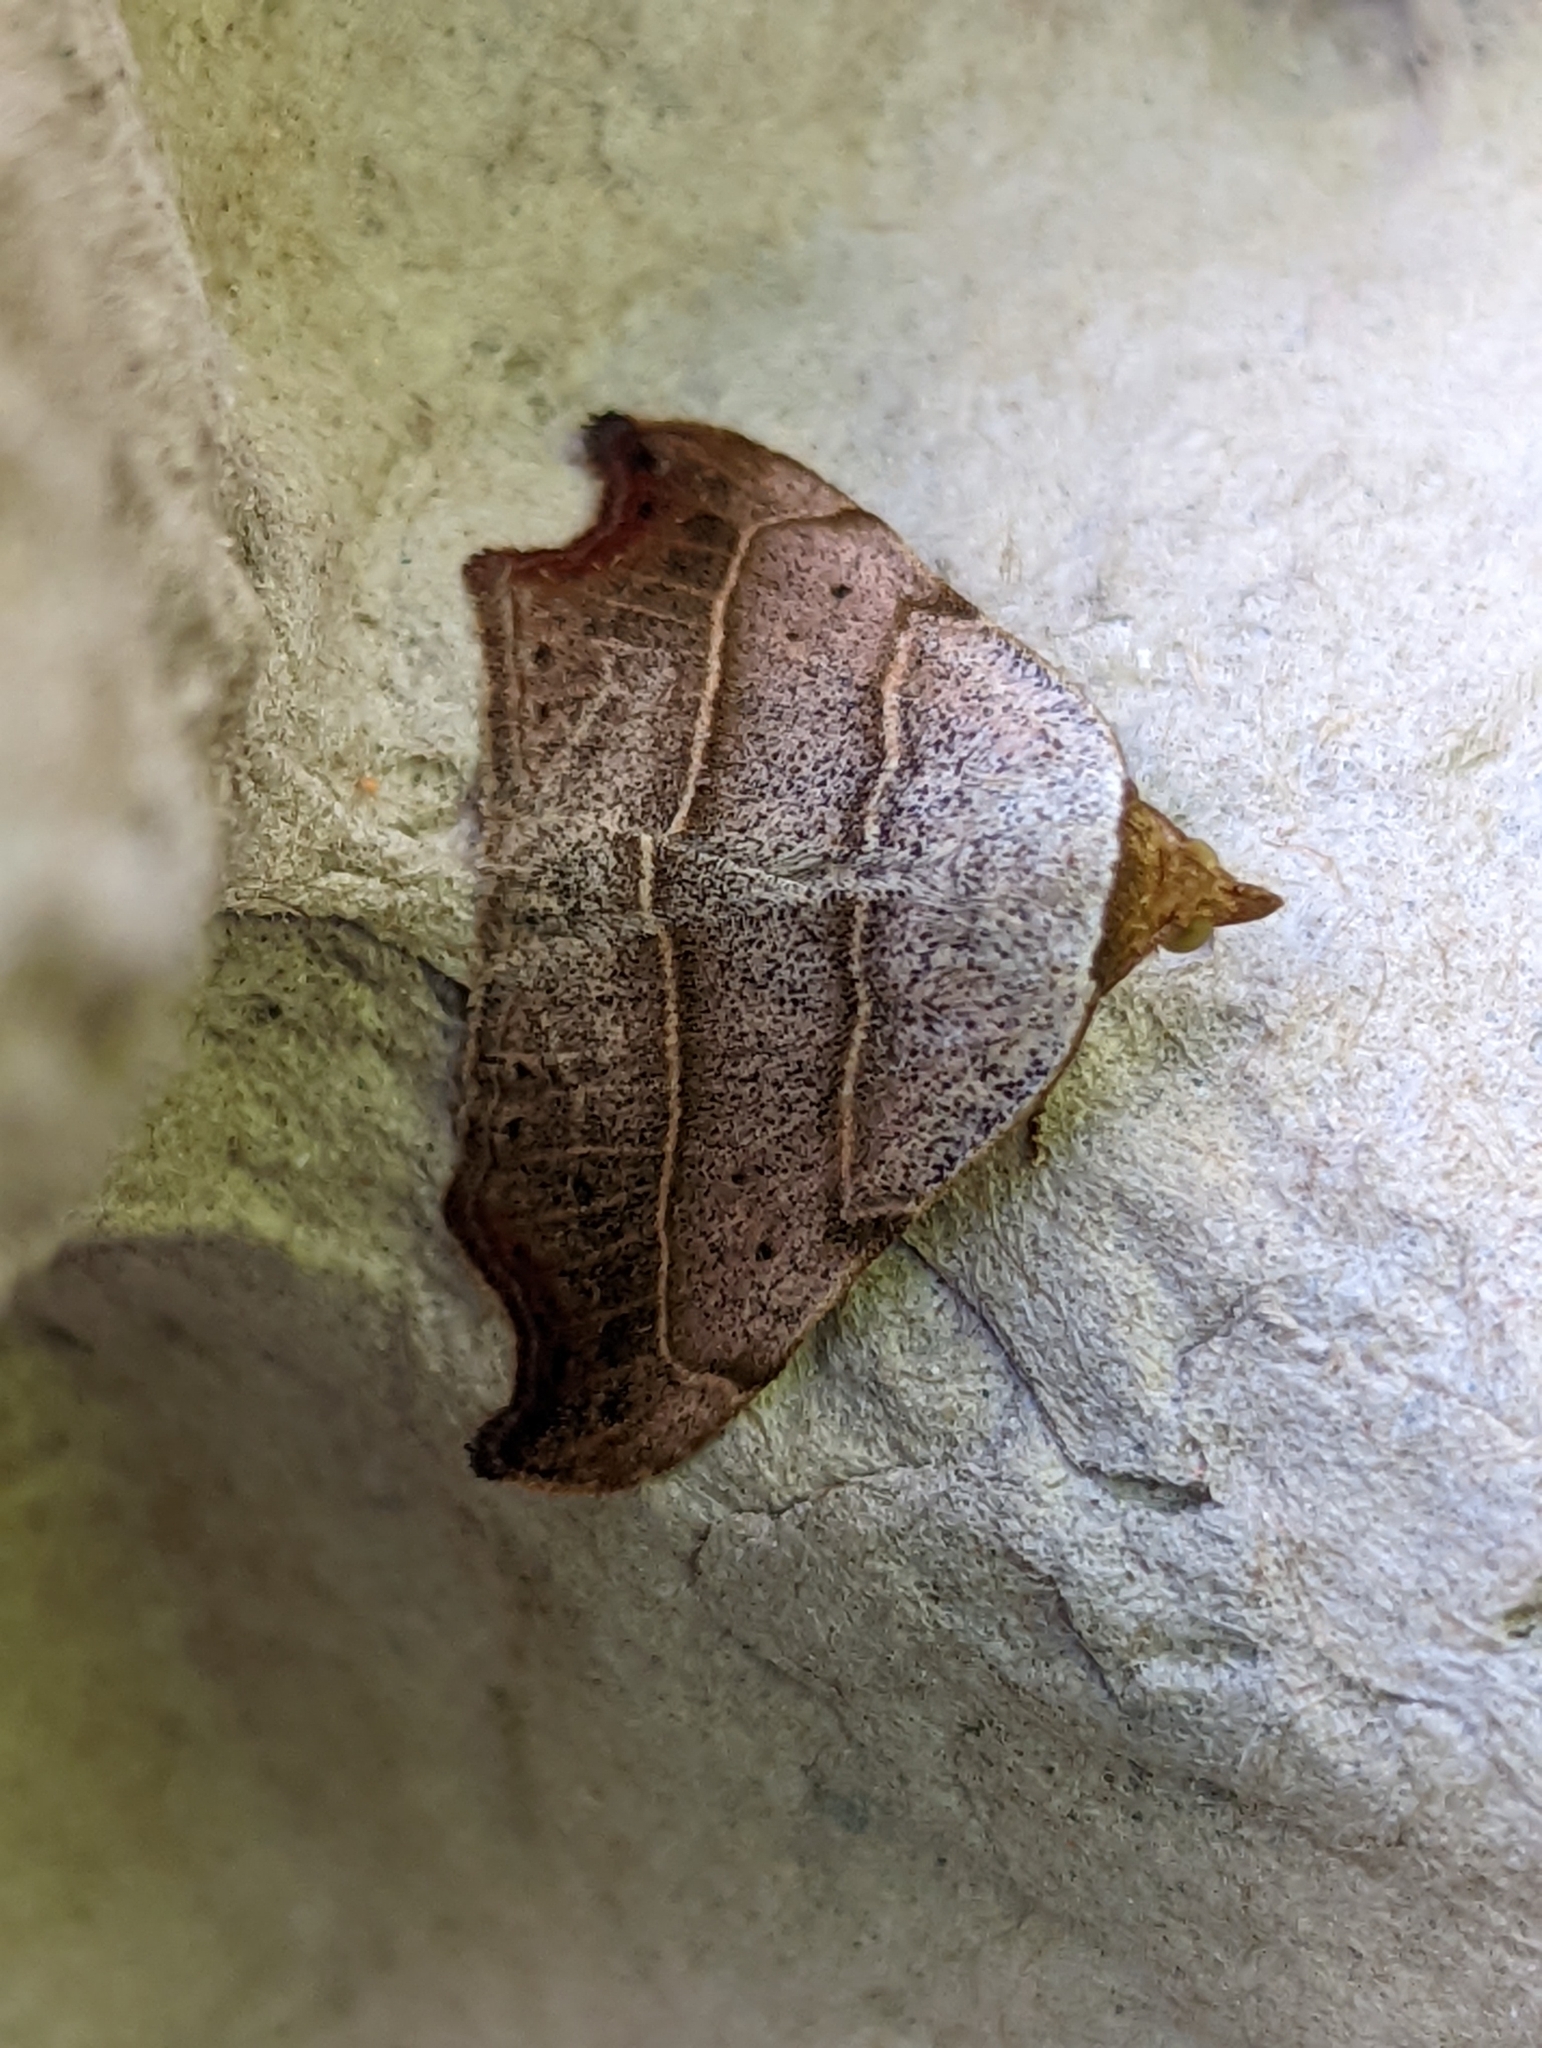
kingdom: Animalia
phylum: Arthropoda
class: Insecta
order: Lepidoptera
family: Erebidae
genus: Laspeyria
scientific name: Laspeyria flexula
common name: Beautiful hook-tip
